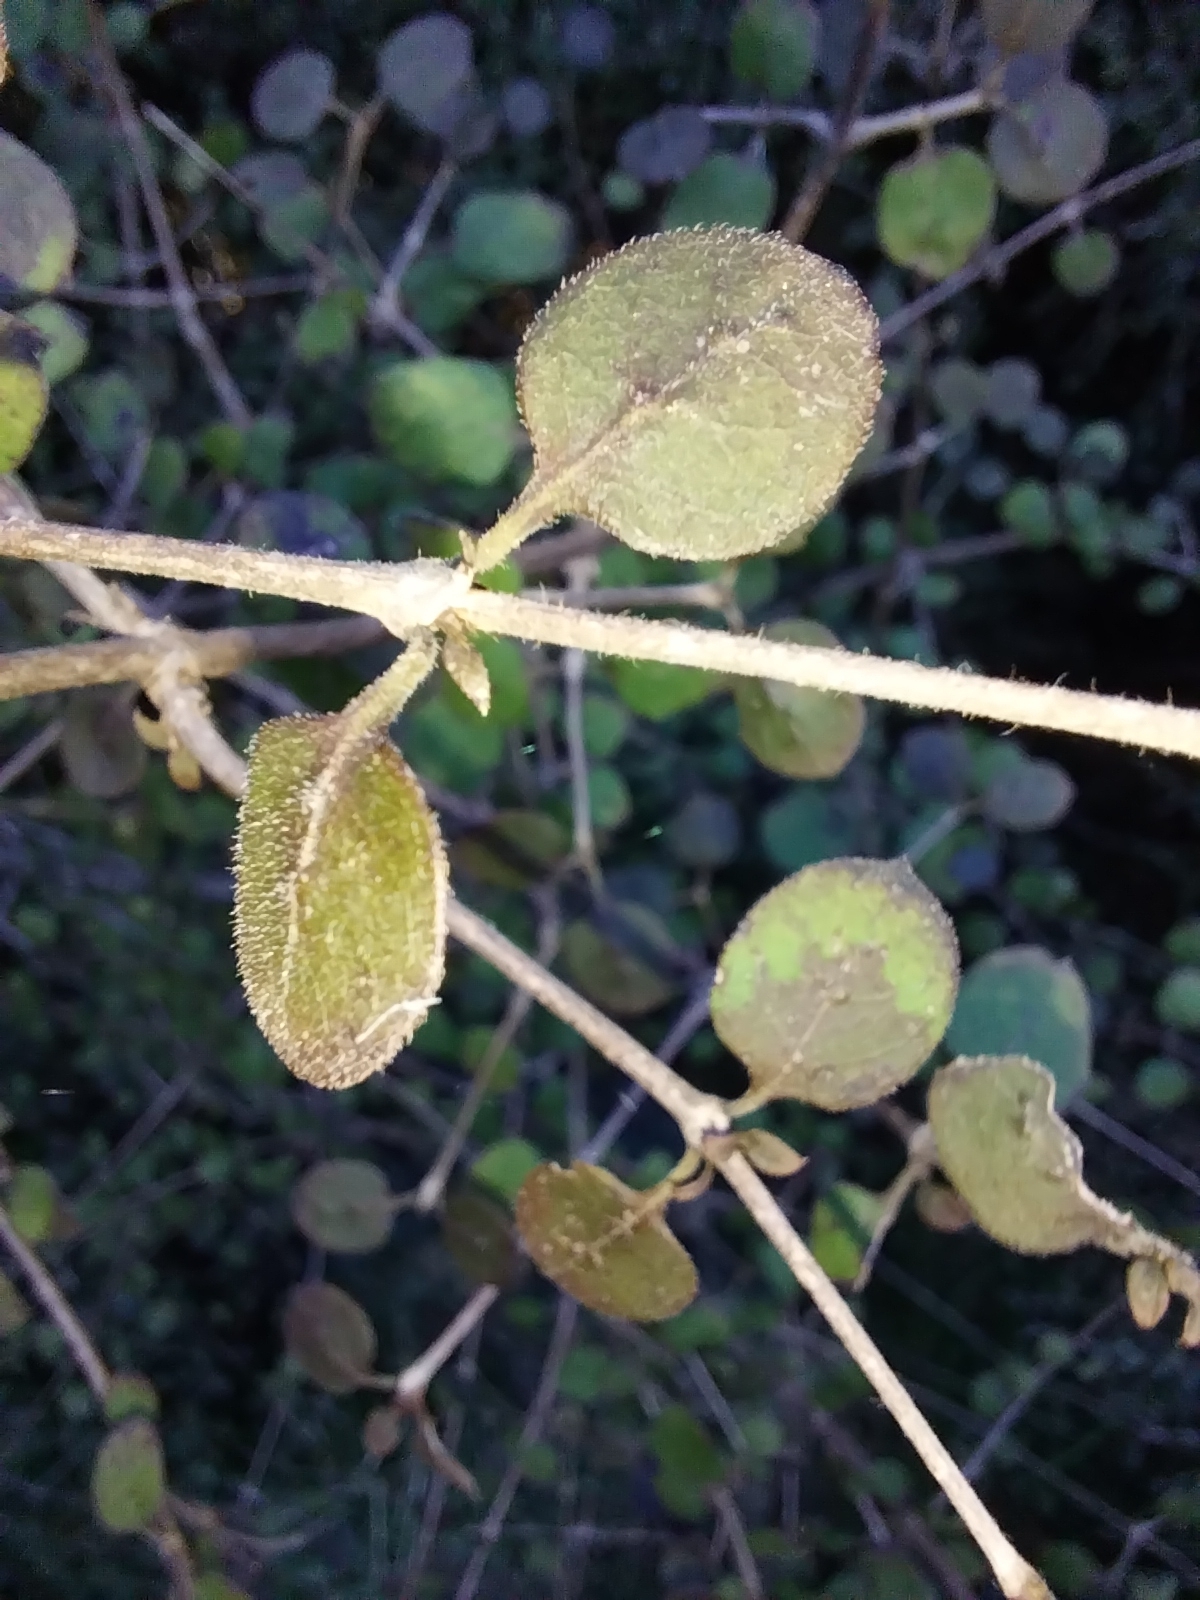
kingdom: Plantae
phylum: Tracheophyta
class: Magnoliopsida
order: Gentianales
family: Rubiaceae
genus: Coprosma
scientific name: Coprosma rotundifolia
